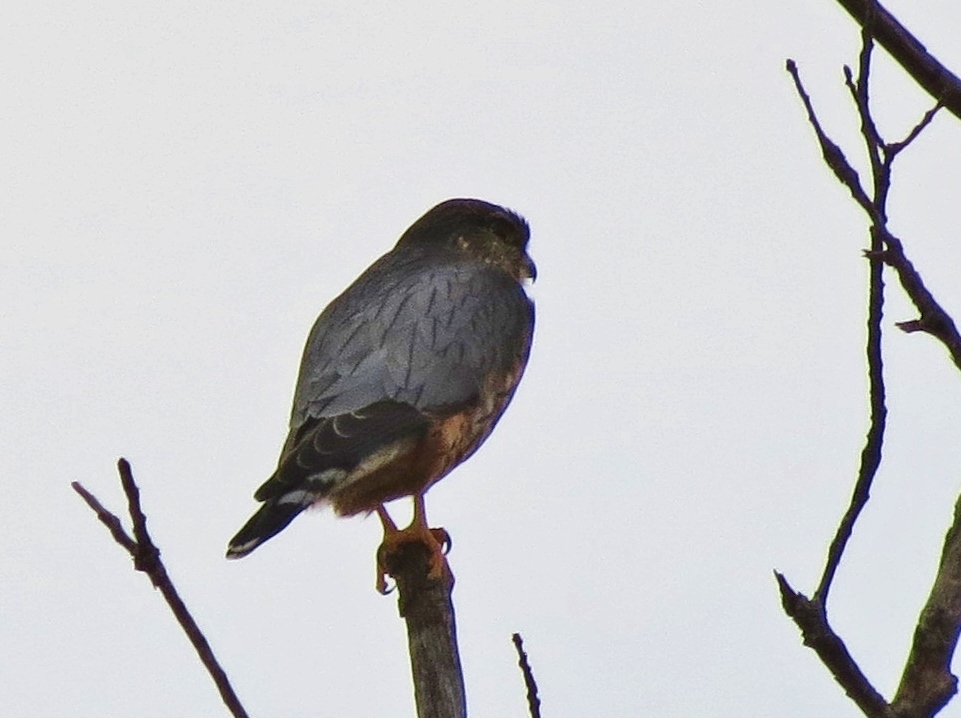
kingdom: Animalia
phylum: Chordata
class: Aves
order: Falconiformes
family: Falconidae
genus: Falco
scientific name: Falco columbarius
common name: Merlin
